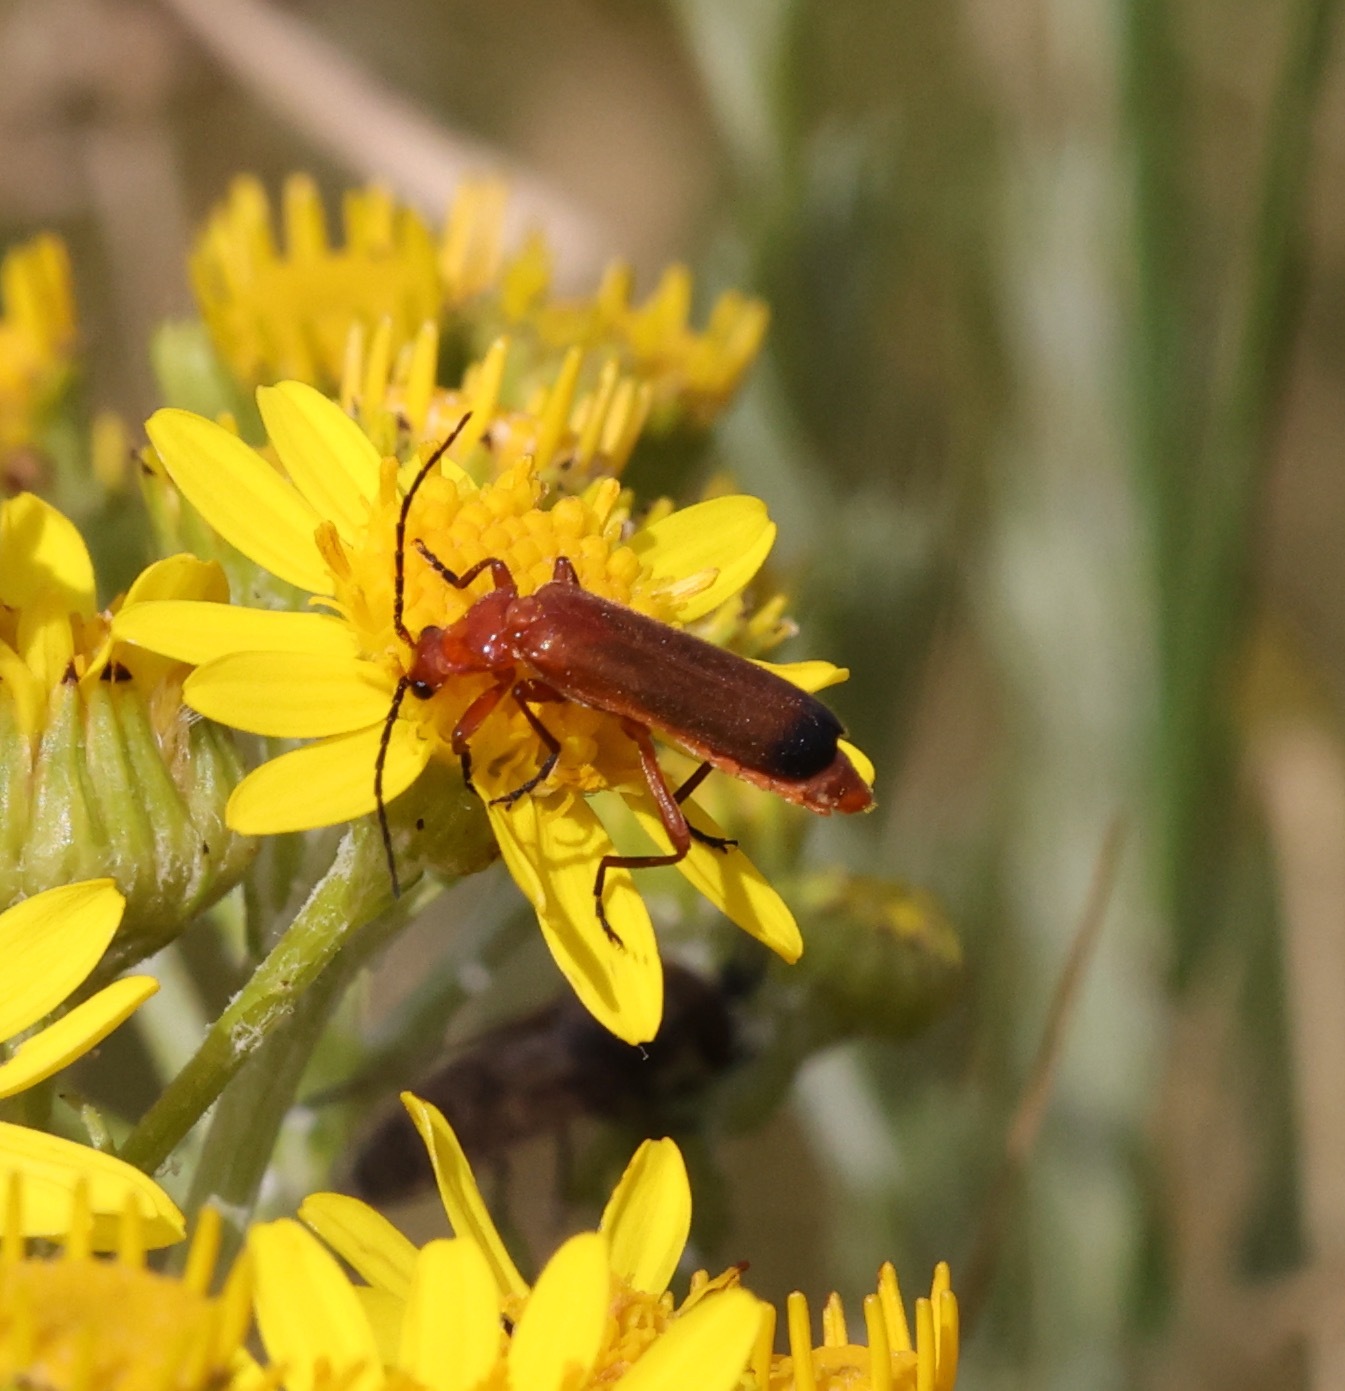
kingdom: Animalia
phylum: Arthropoda
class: Insecta
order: Coleoptera
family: Cantharidae
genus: Rhagonycha
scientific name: Rhagonycha fulva
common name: Common red soldier beetle
